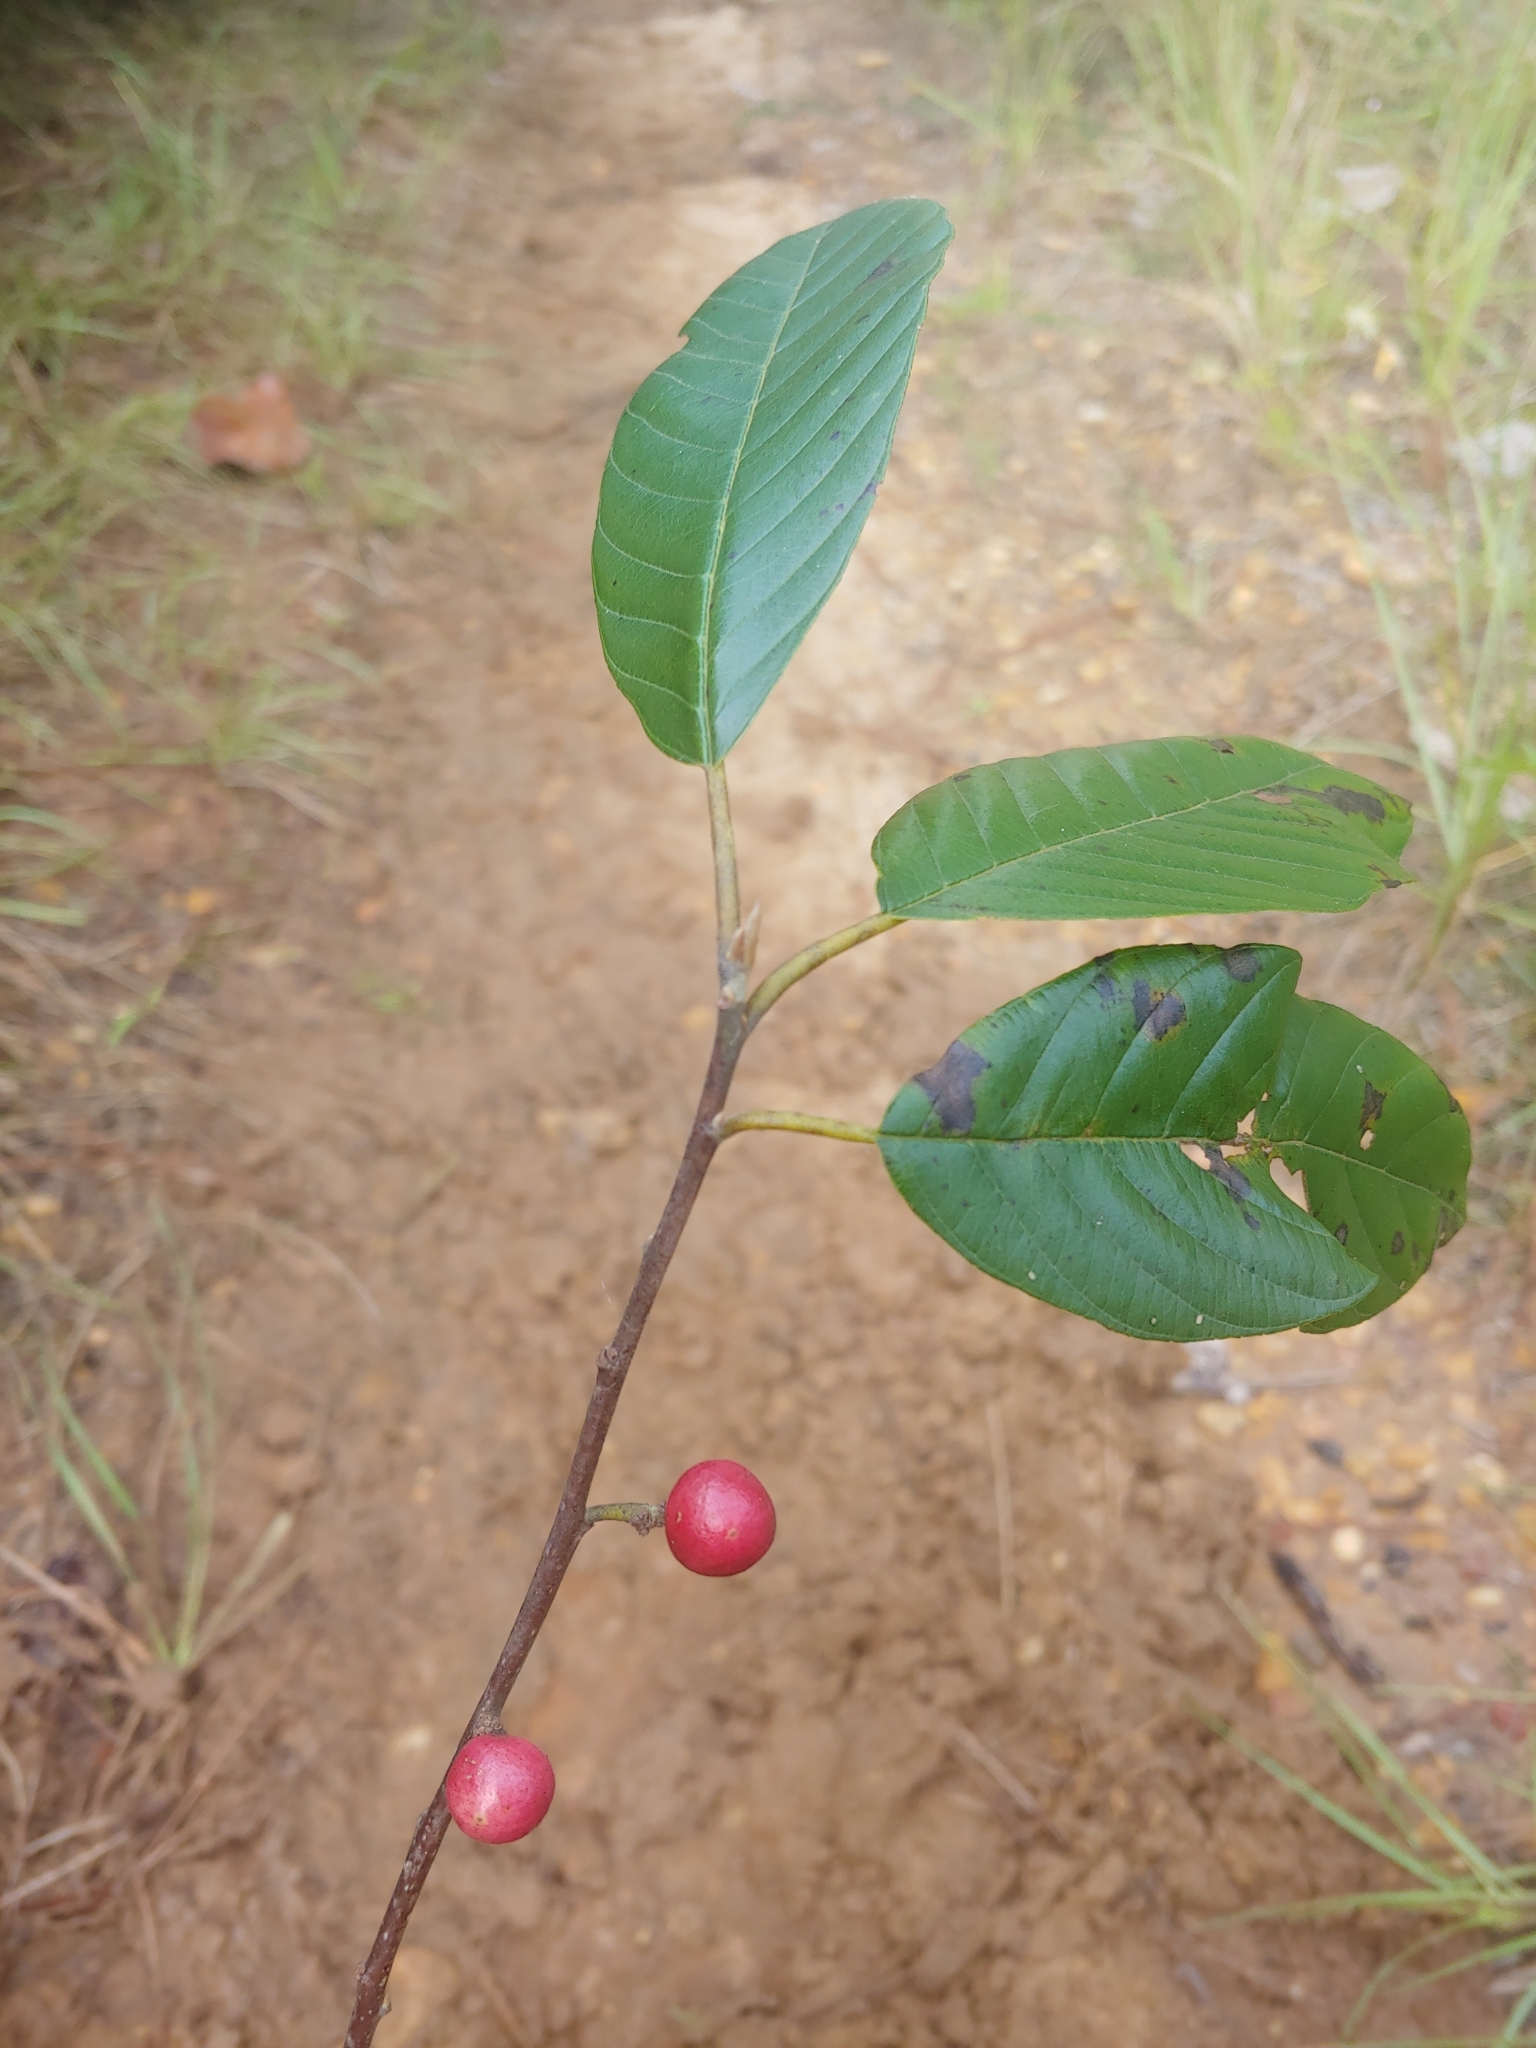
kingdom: Plantae
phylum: Tracheophyta
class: Magnoliopsida
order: Rosales
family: Rhamnaceae
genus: Frangula
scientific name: Frangula caroliniana
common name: Carolina buckthorn
